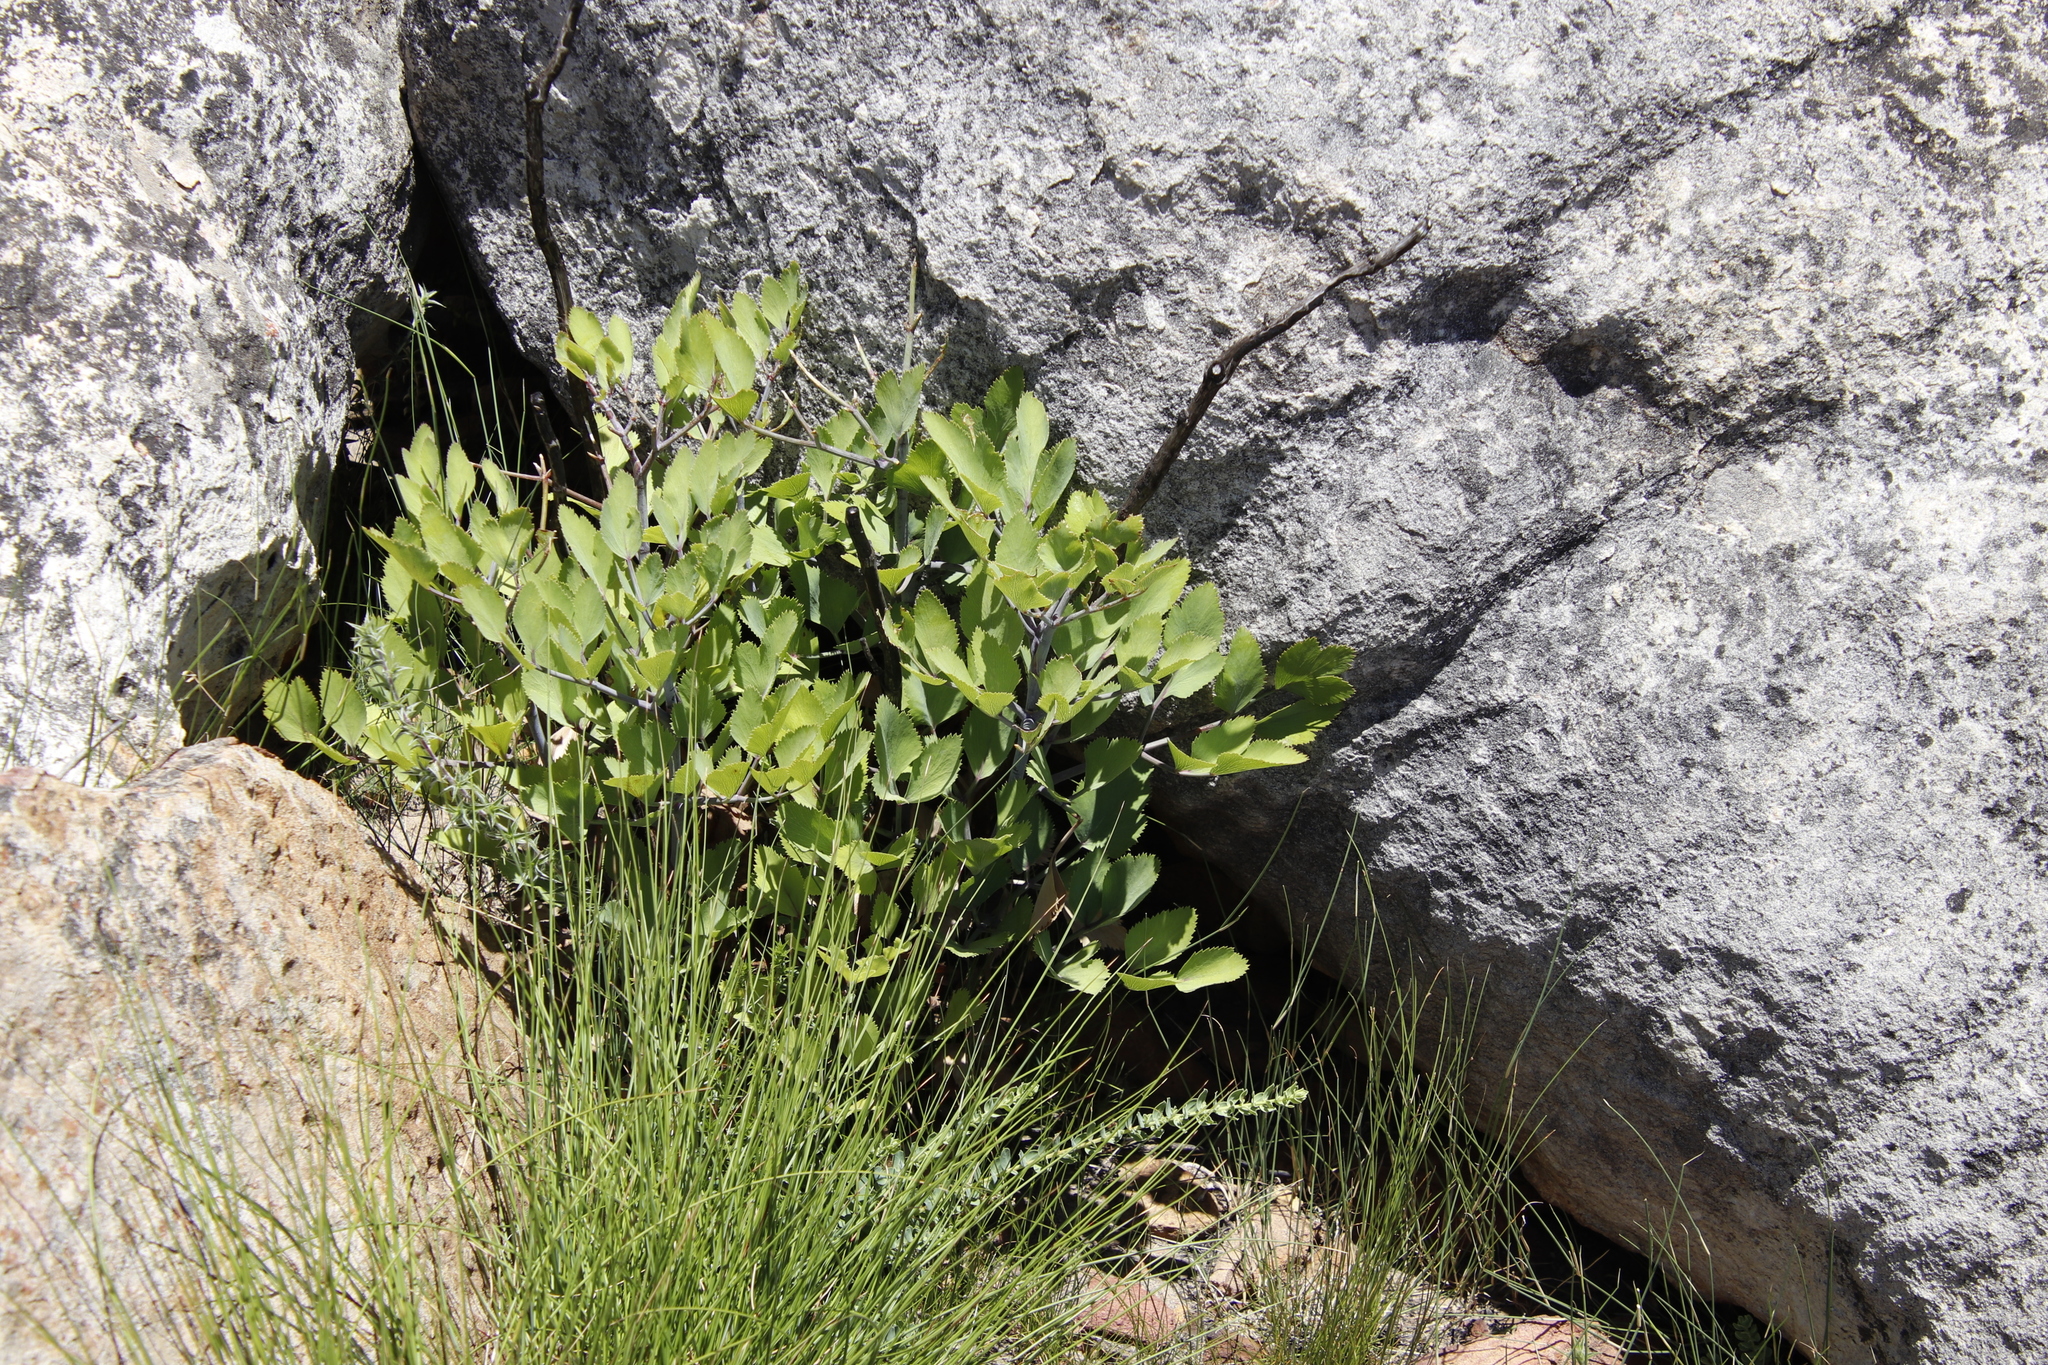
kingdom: Plantae
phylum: Tracheophyta
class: Magnoliopsida
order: Apiales
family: Apiaceae
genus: Notobubon
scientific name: Notobubon galbanum
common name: Blisterbush
